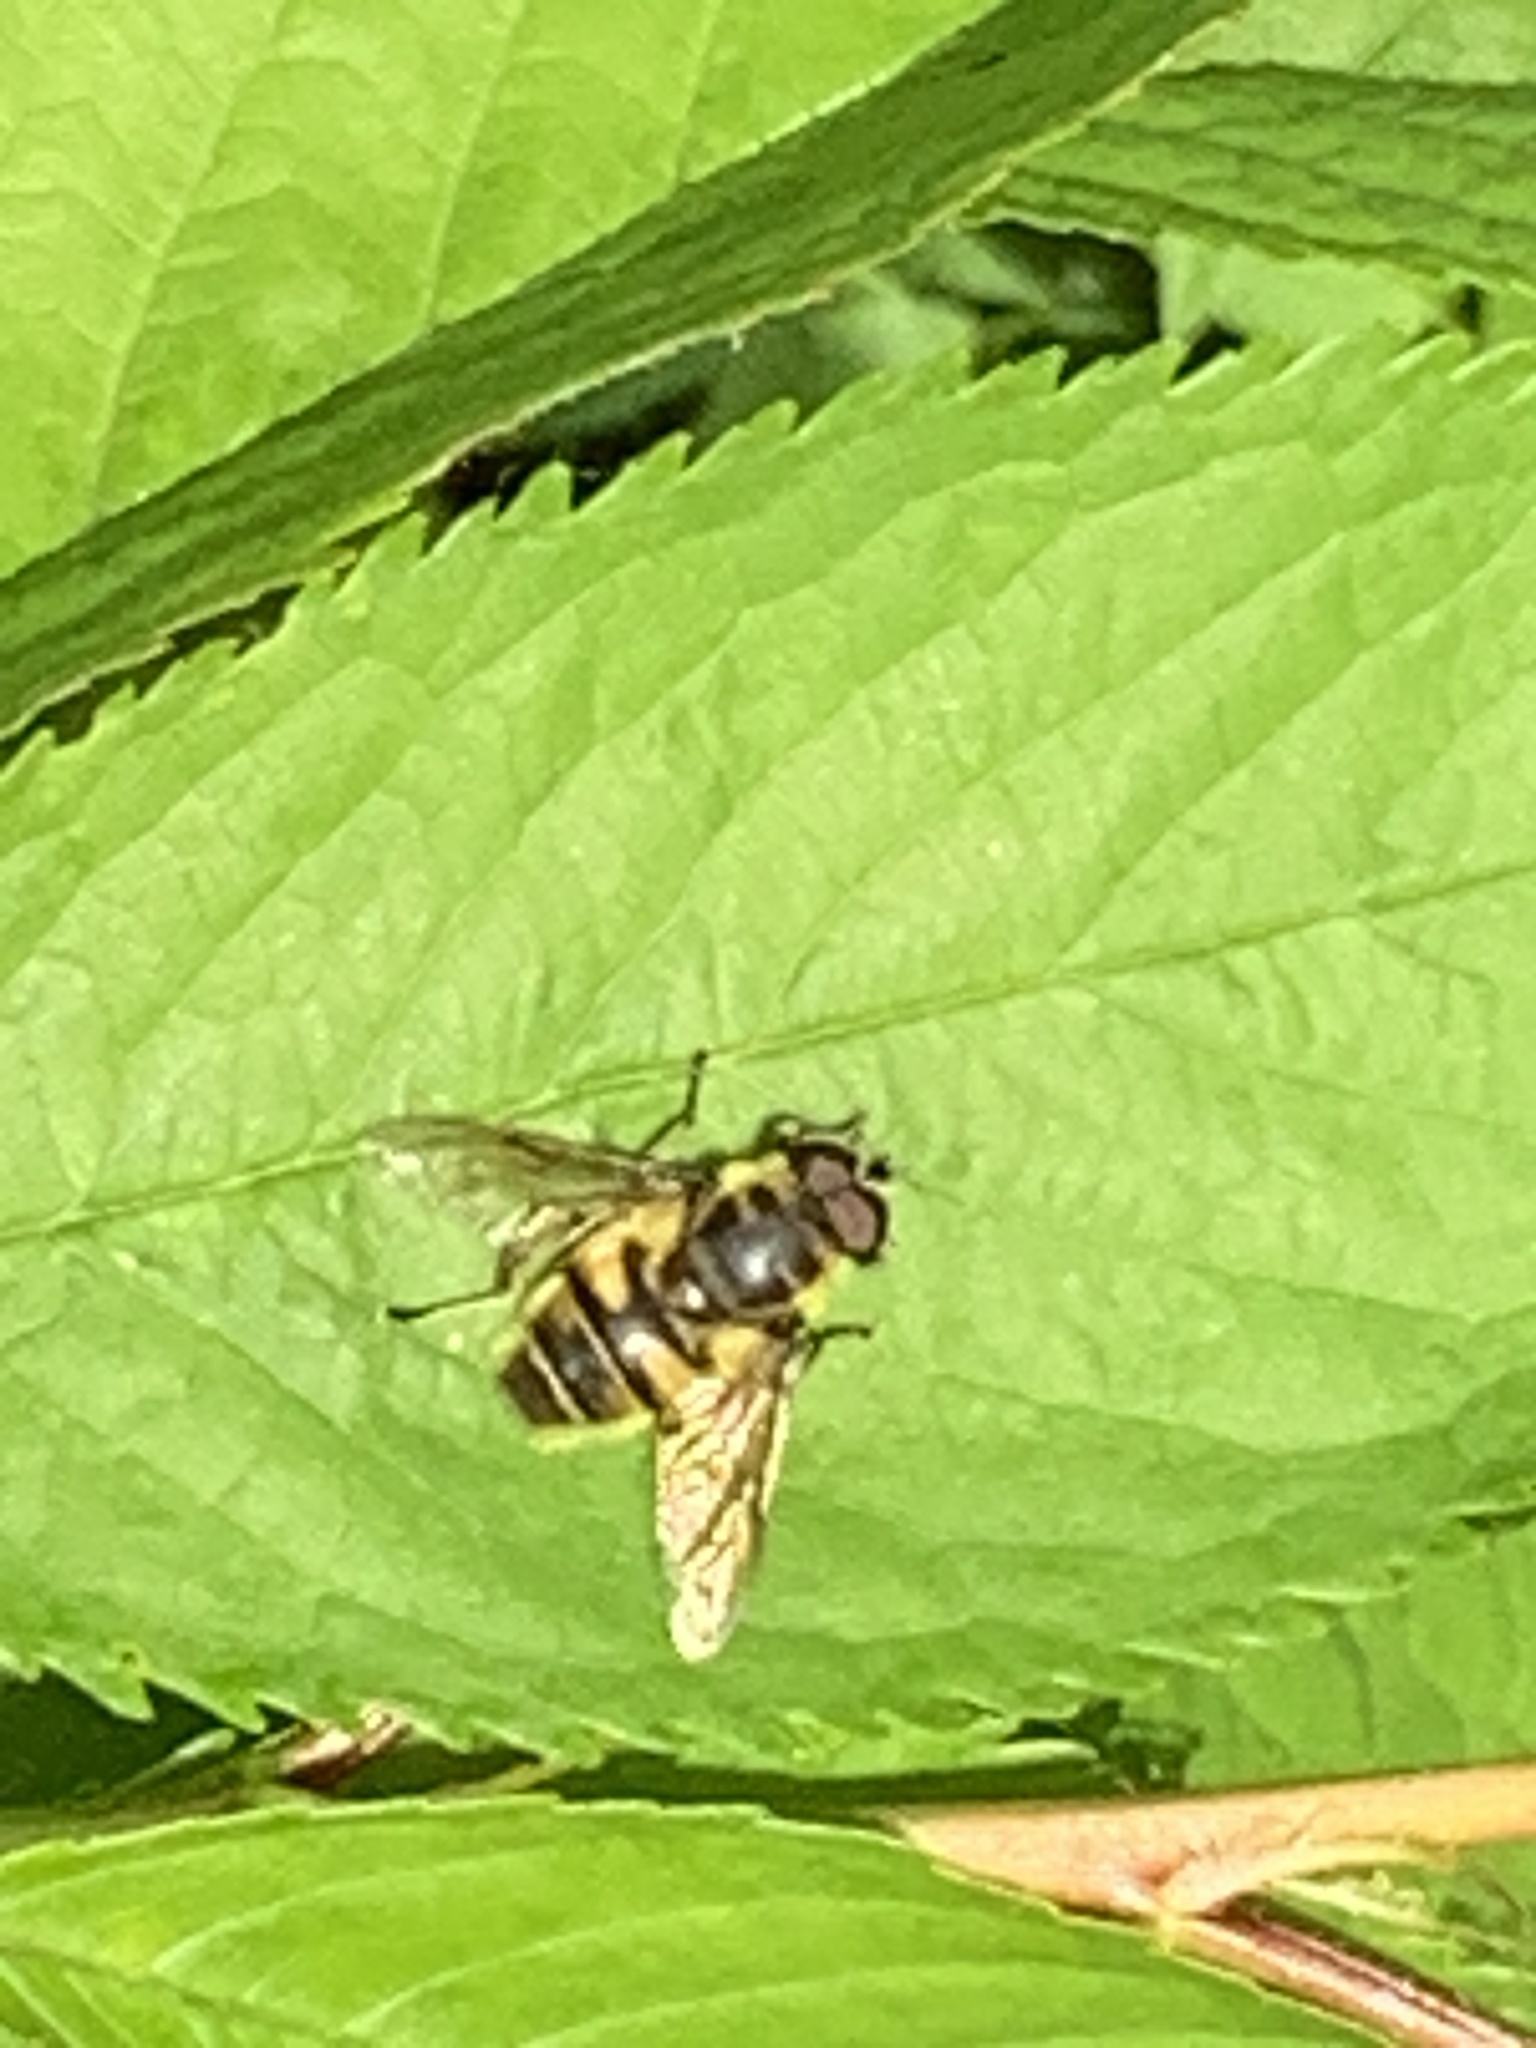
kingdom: Animalia
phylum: Arthropoda
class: Insecta
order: Diptera
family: Syrphidae
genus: Myathropa
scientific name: Myathropa florea
